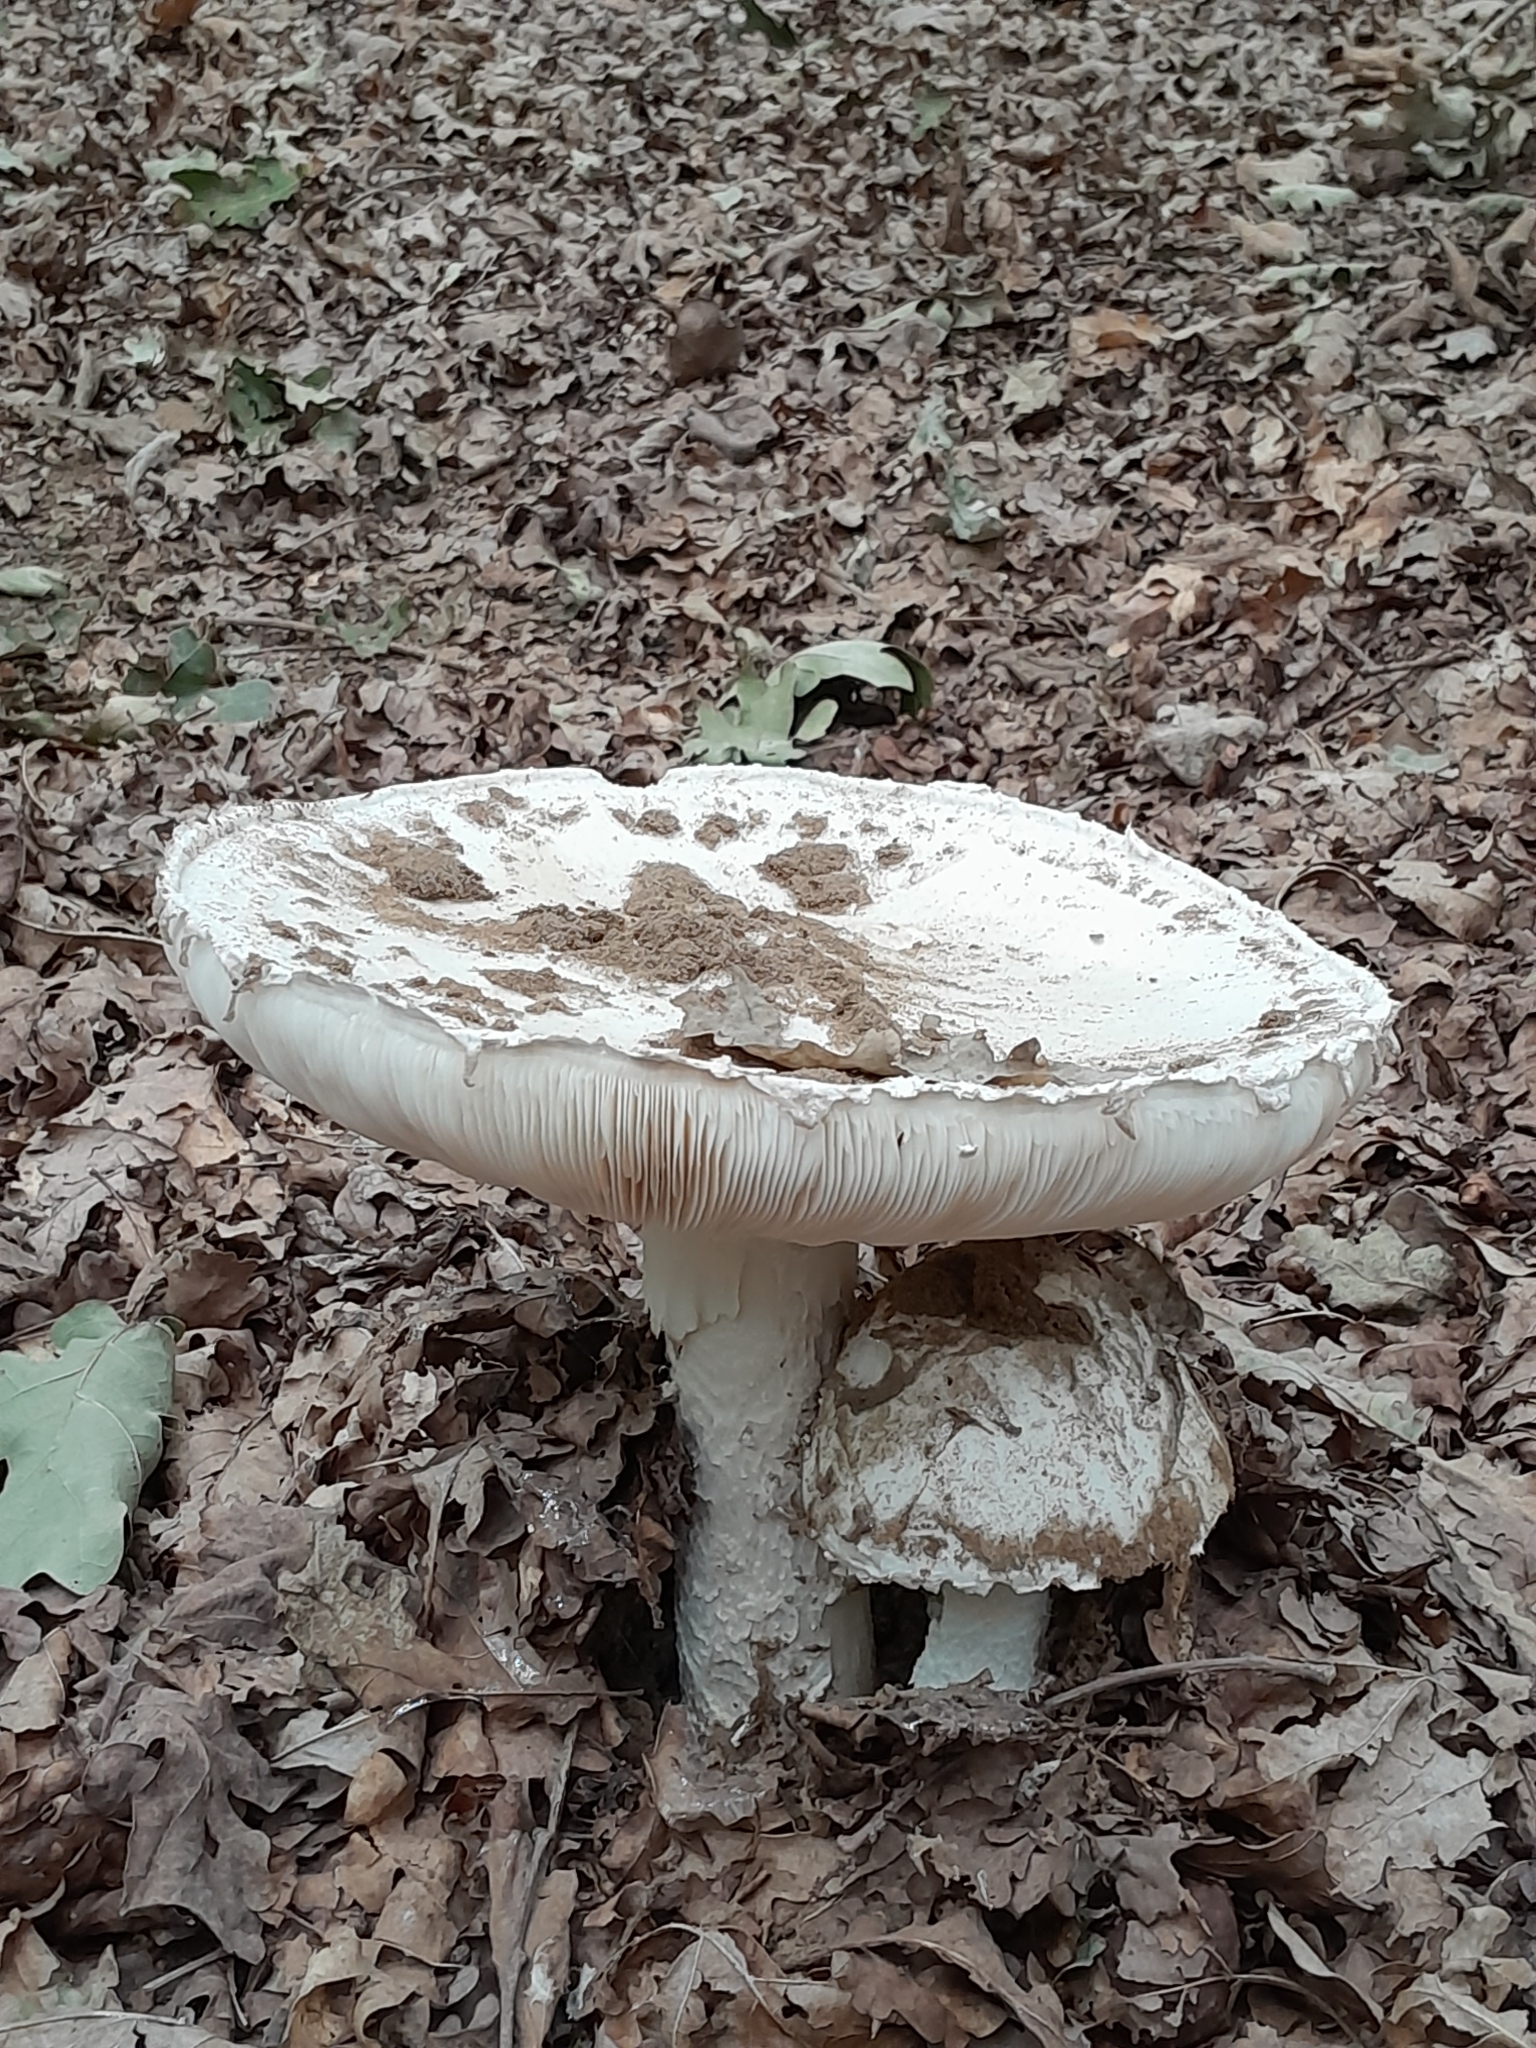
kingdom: Fungi
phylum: Basidiomycota
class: Agaricomycetes
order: Agaricales
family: Amanitaceae
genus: Amanita
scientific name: Amanita strobiliformis
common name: Warted amanita
